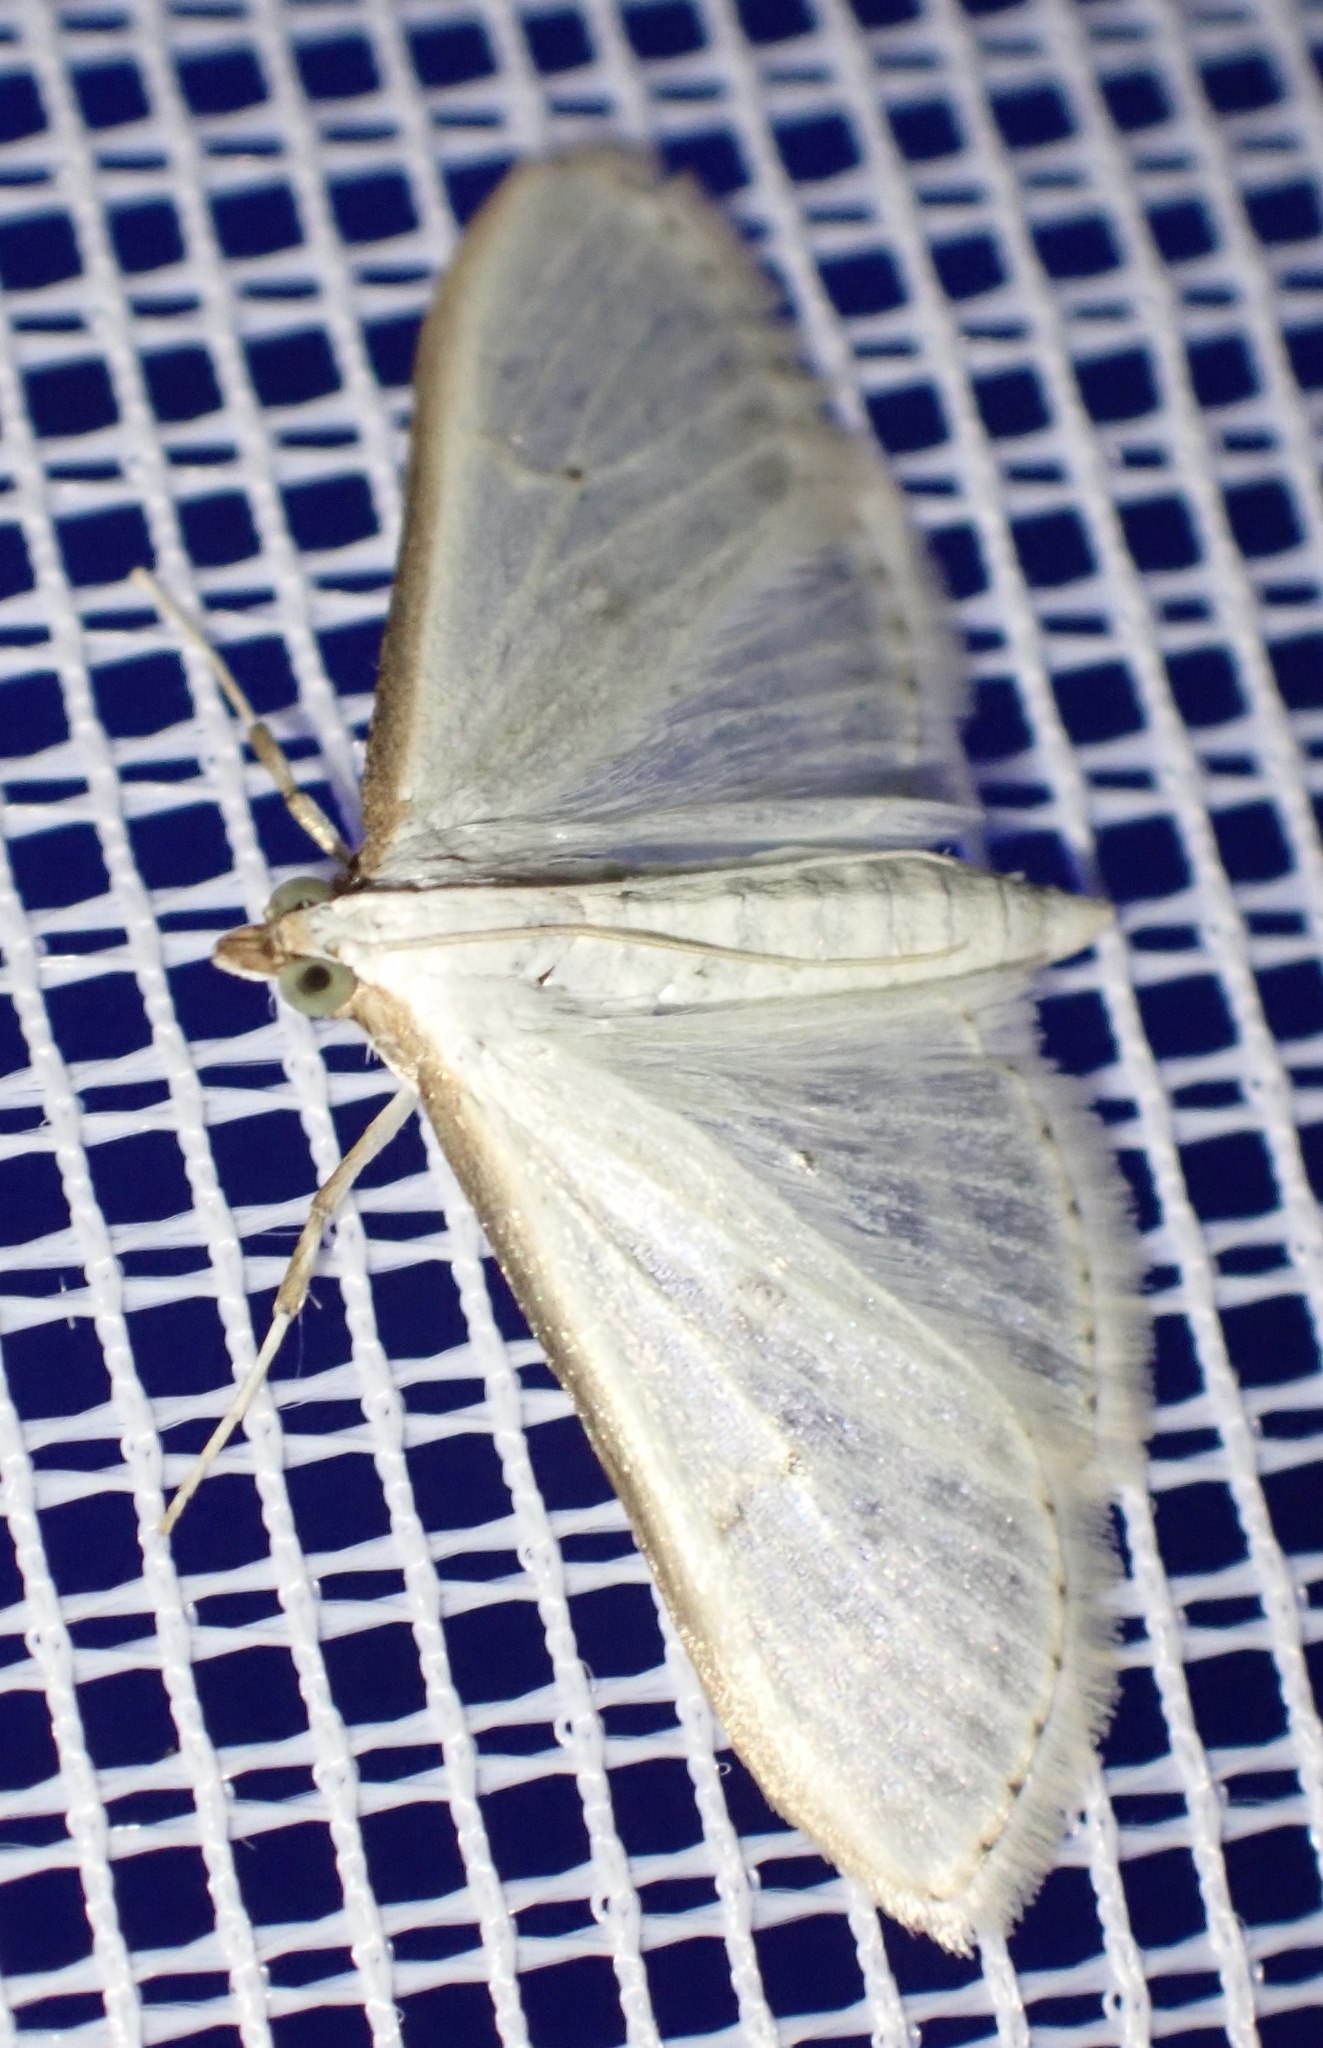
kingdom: Animalia
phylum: Arthropoda
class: Insecta
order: Lepidoptera
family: Crambidae
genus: Palpita
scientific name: Palpita vitrealis
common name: Olive-tree pearl
